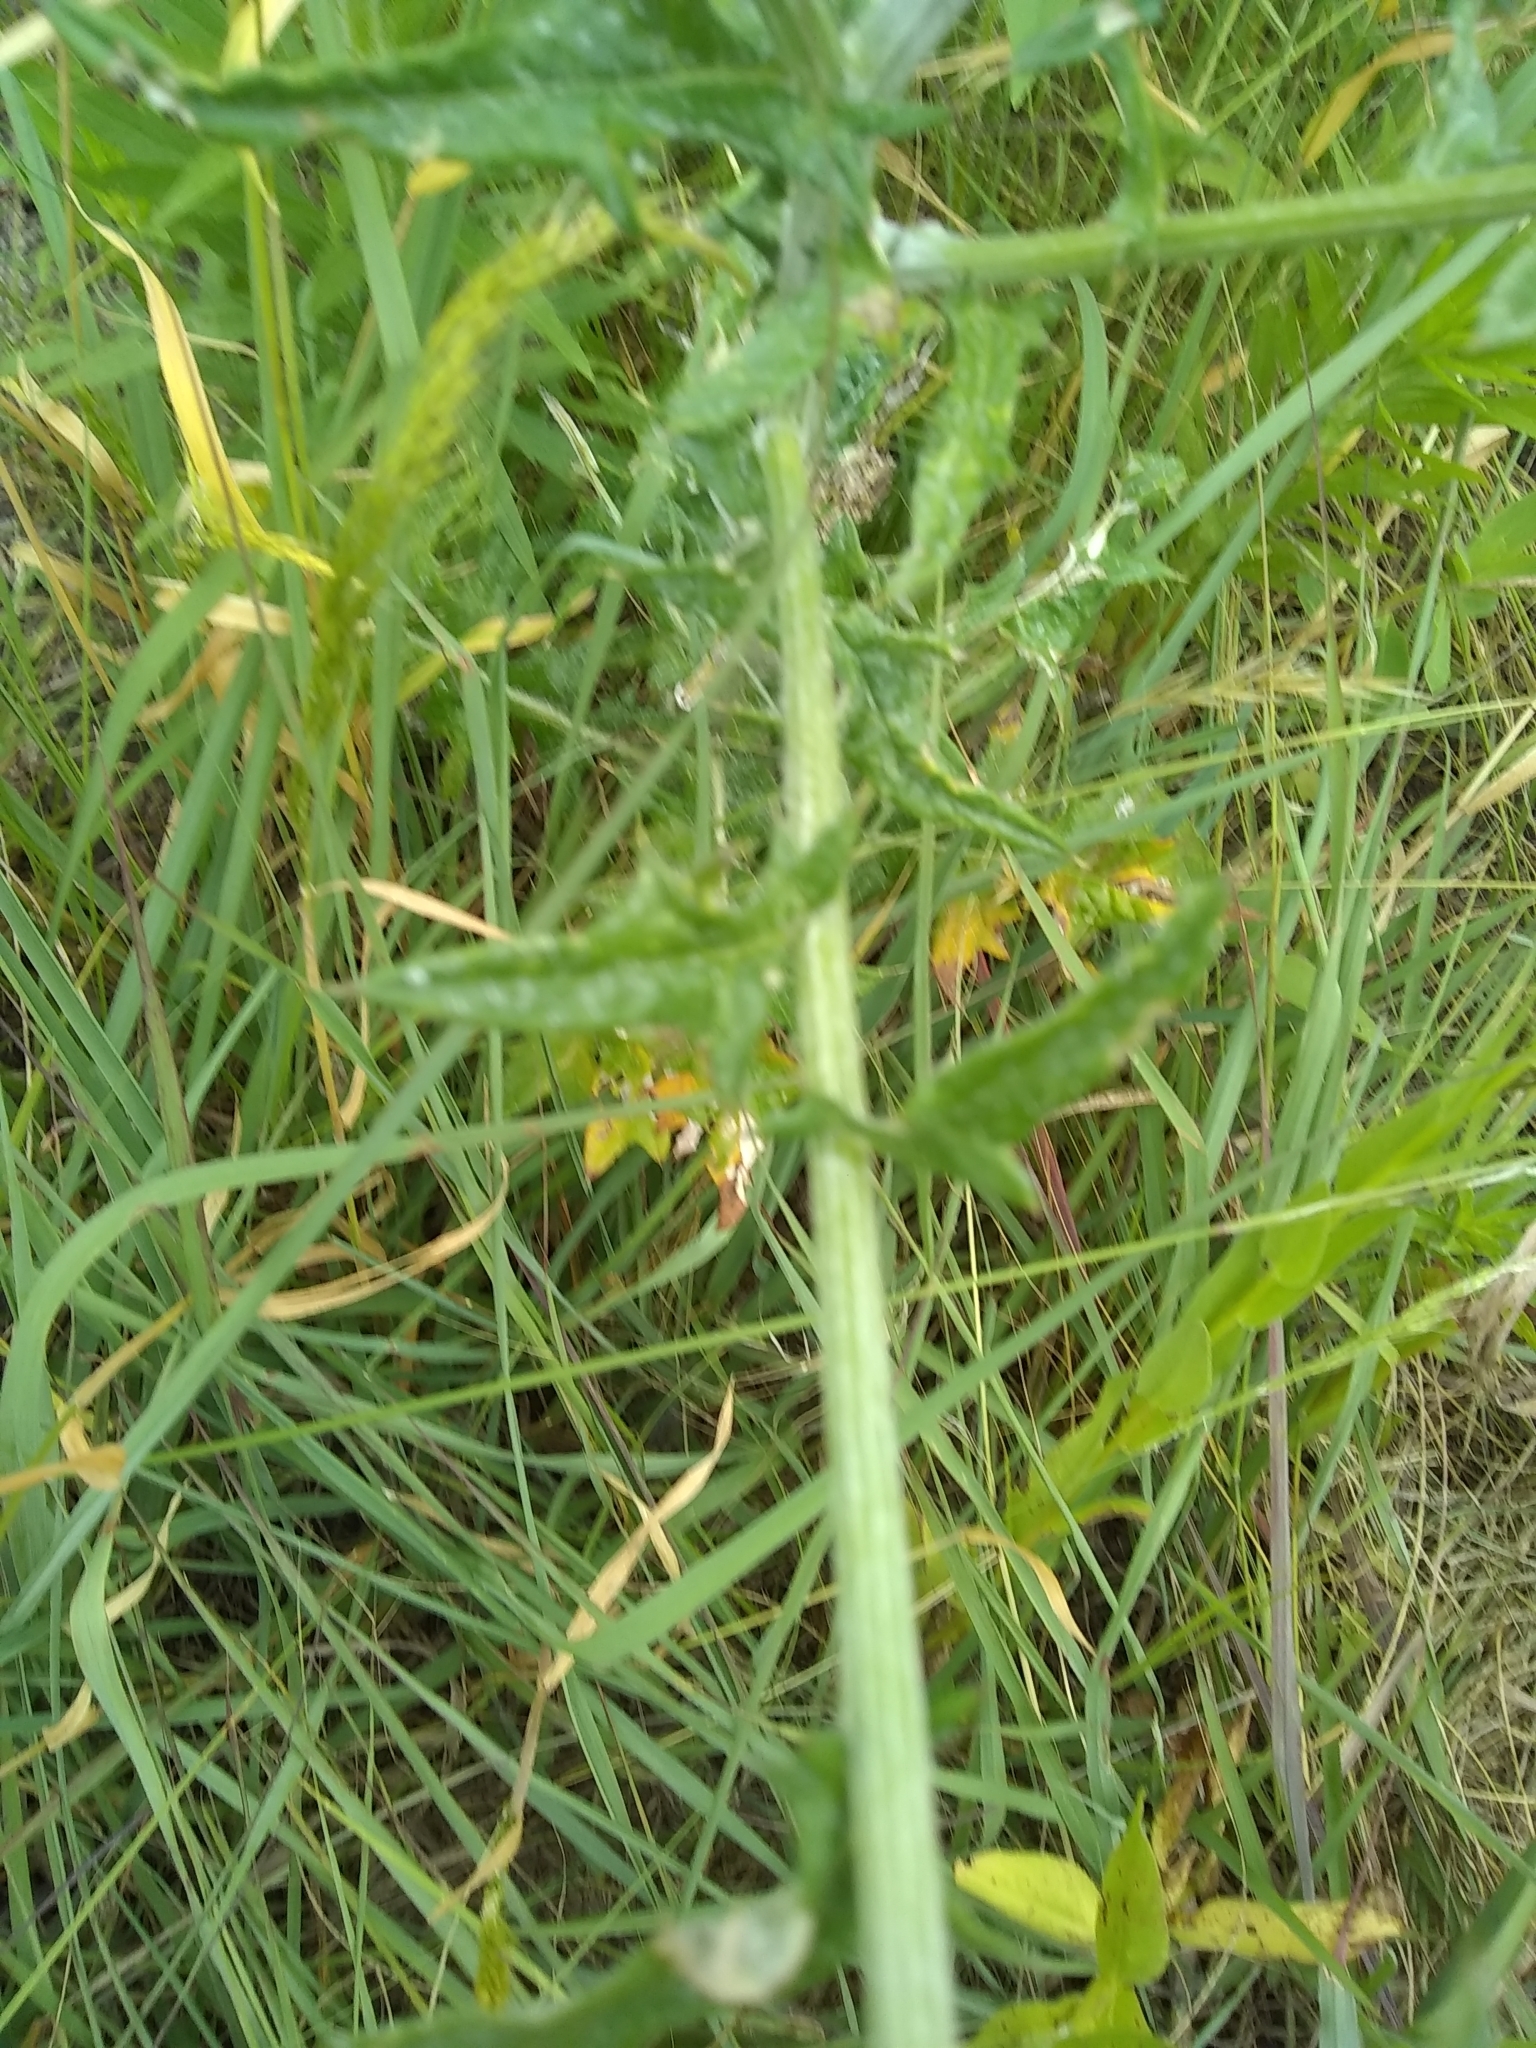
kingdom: Plantae
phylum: Tracheophyta
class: Magnoliopsida
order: Asterales
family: Asteraceae
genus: Cirsium
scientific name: Cirsium texanum
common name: Texas purple thistle
